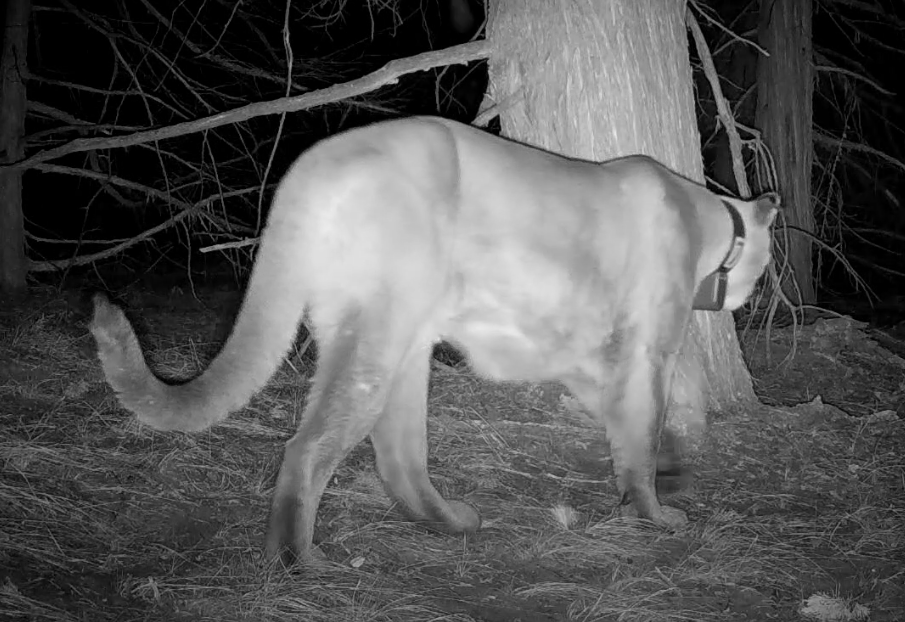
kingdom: Animalia
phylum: Chordata
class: Mammalia
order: Carnivora
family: Felidae
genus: Puma
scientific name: Puma concolor
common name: Puma
